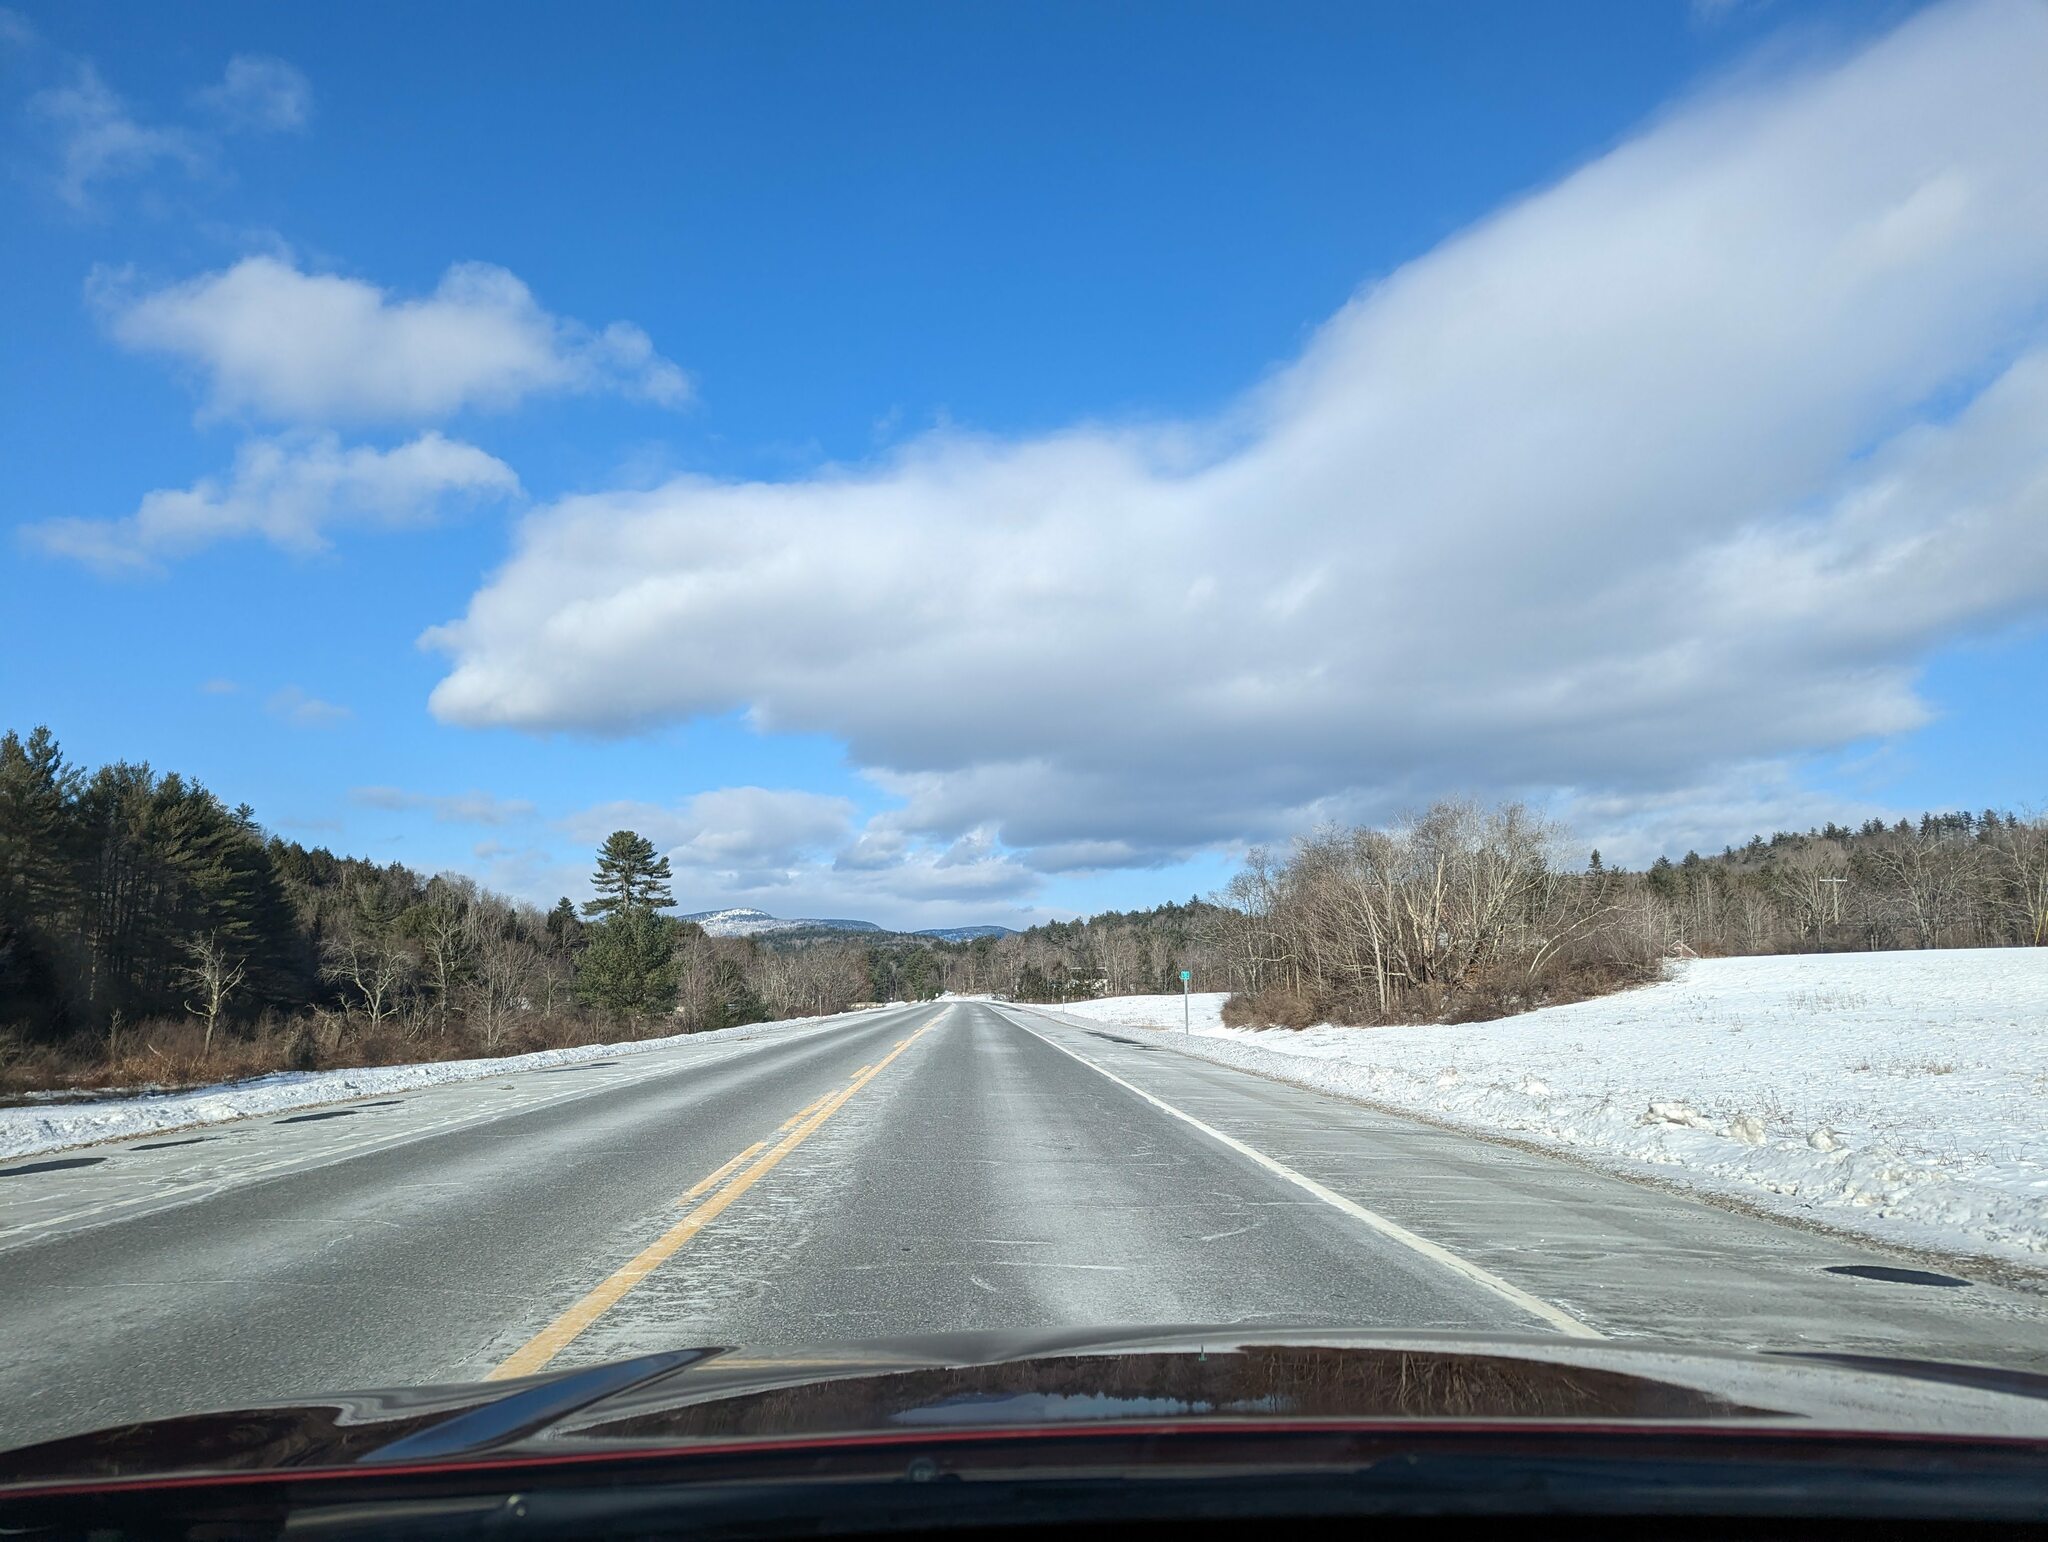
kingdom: Plantae
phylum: Tracheophyta
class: Pinopsida
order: Pinales
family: Pinaceae
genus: Pinus
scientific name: Pinus strobus
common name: Weymouth pine
